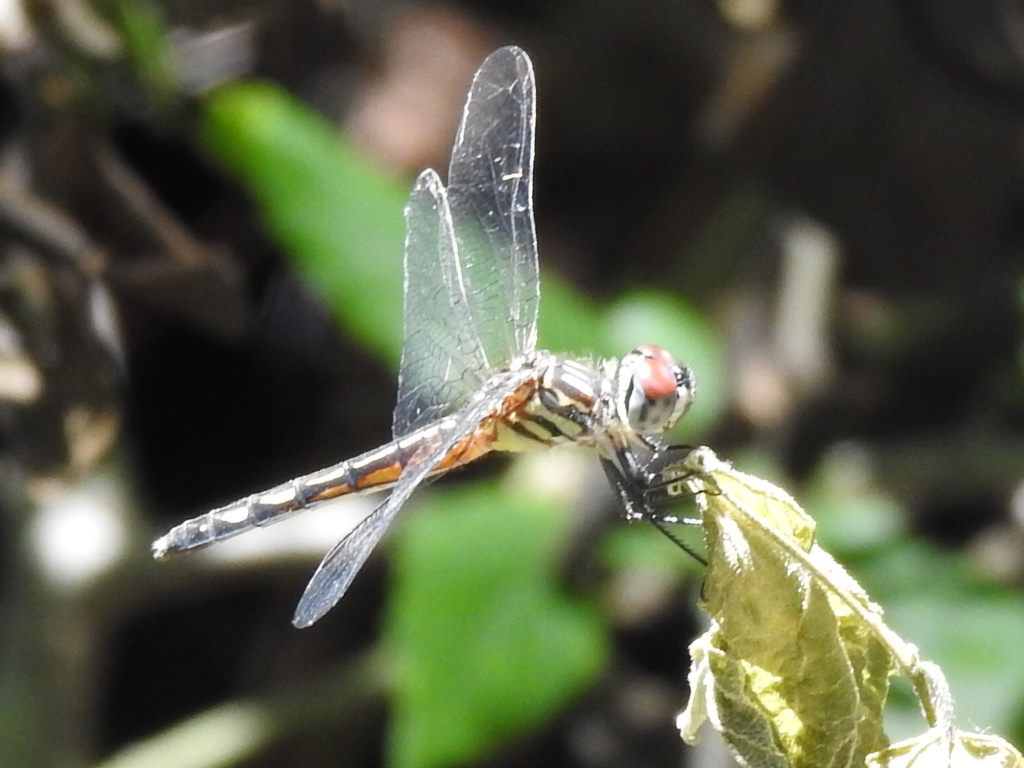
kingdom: Animalia
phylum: Arthropoda
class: Insecta
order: Odonata
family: Libellulidae
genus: Pachydiplax
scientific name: Pachydiplax longipennis
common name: Blue dasher
